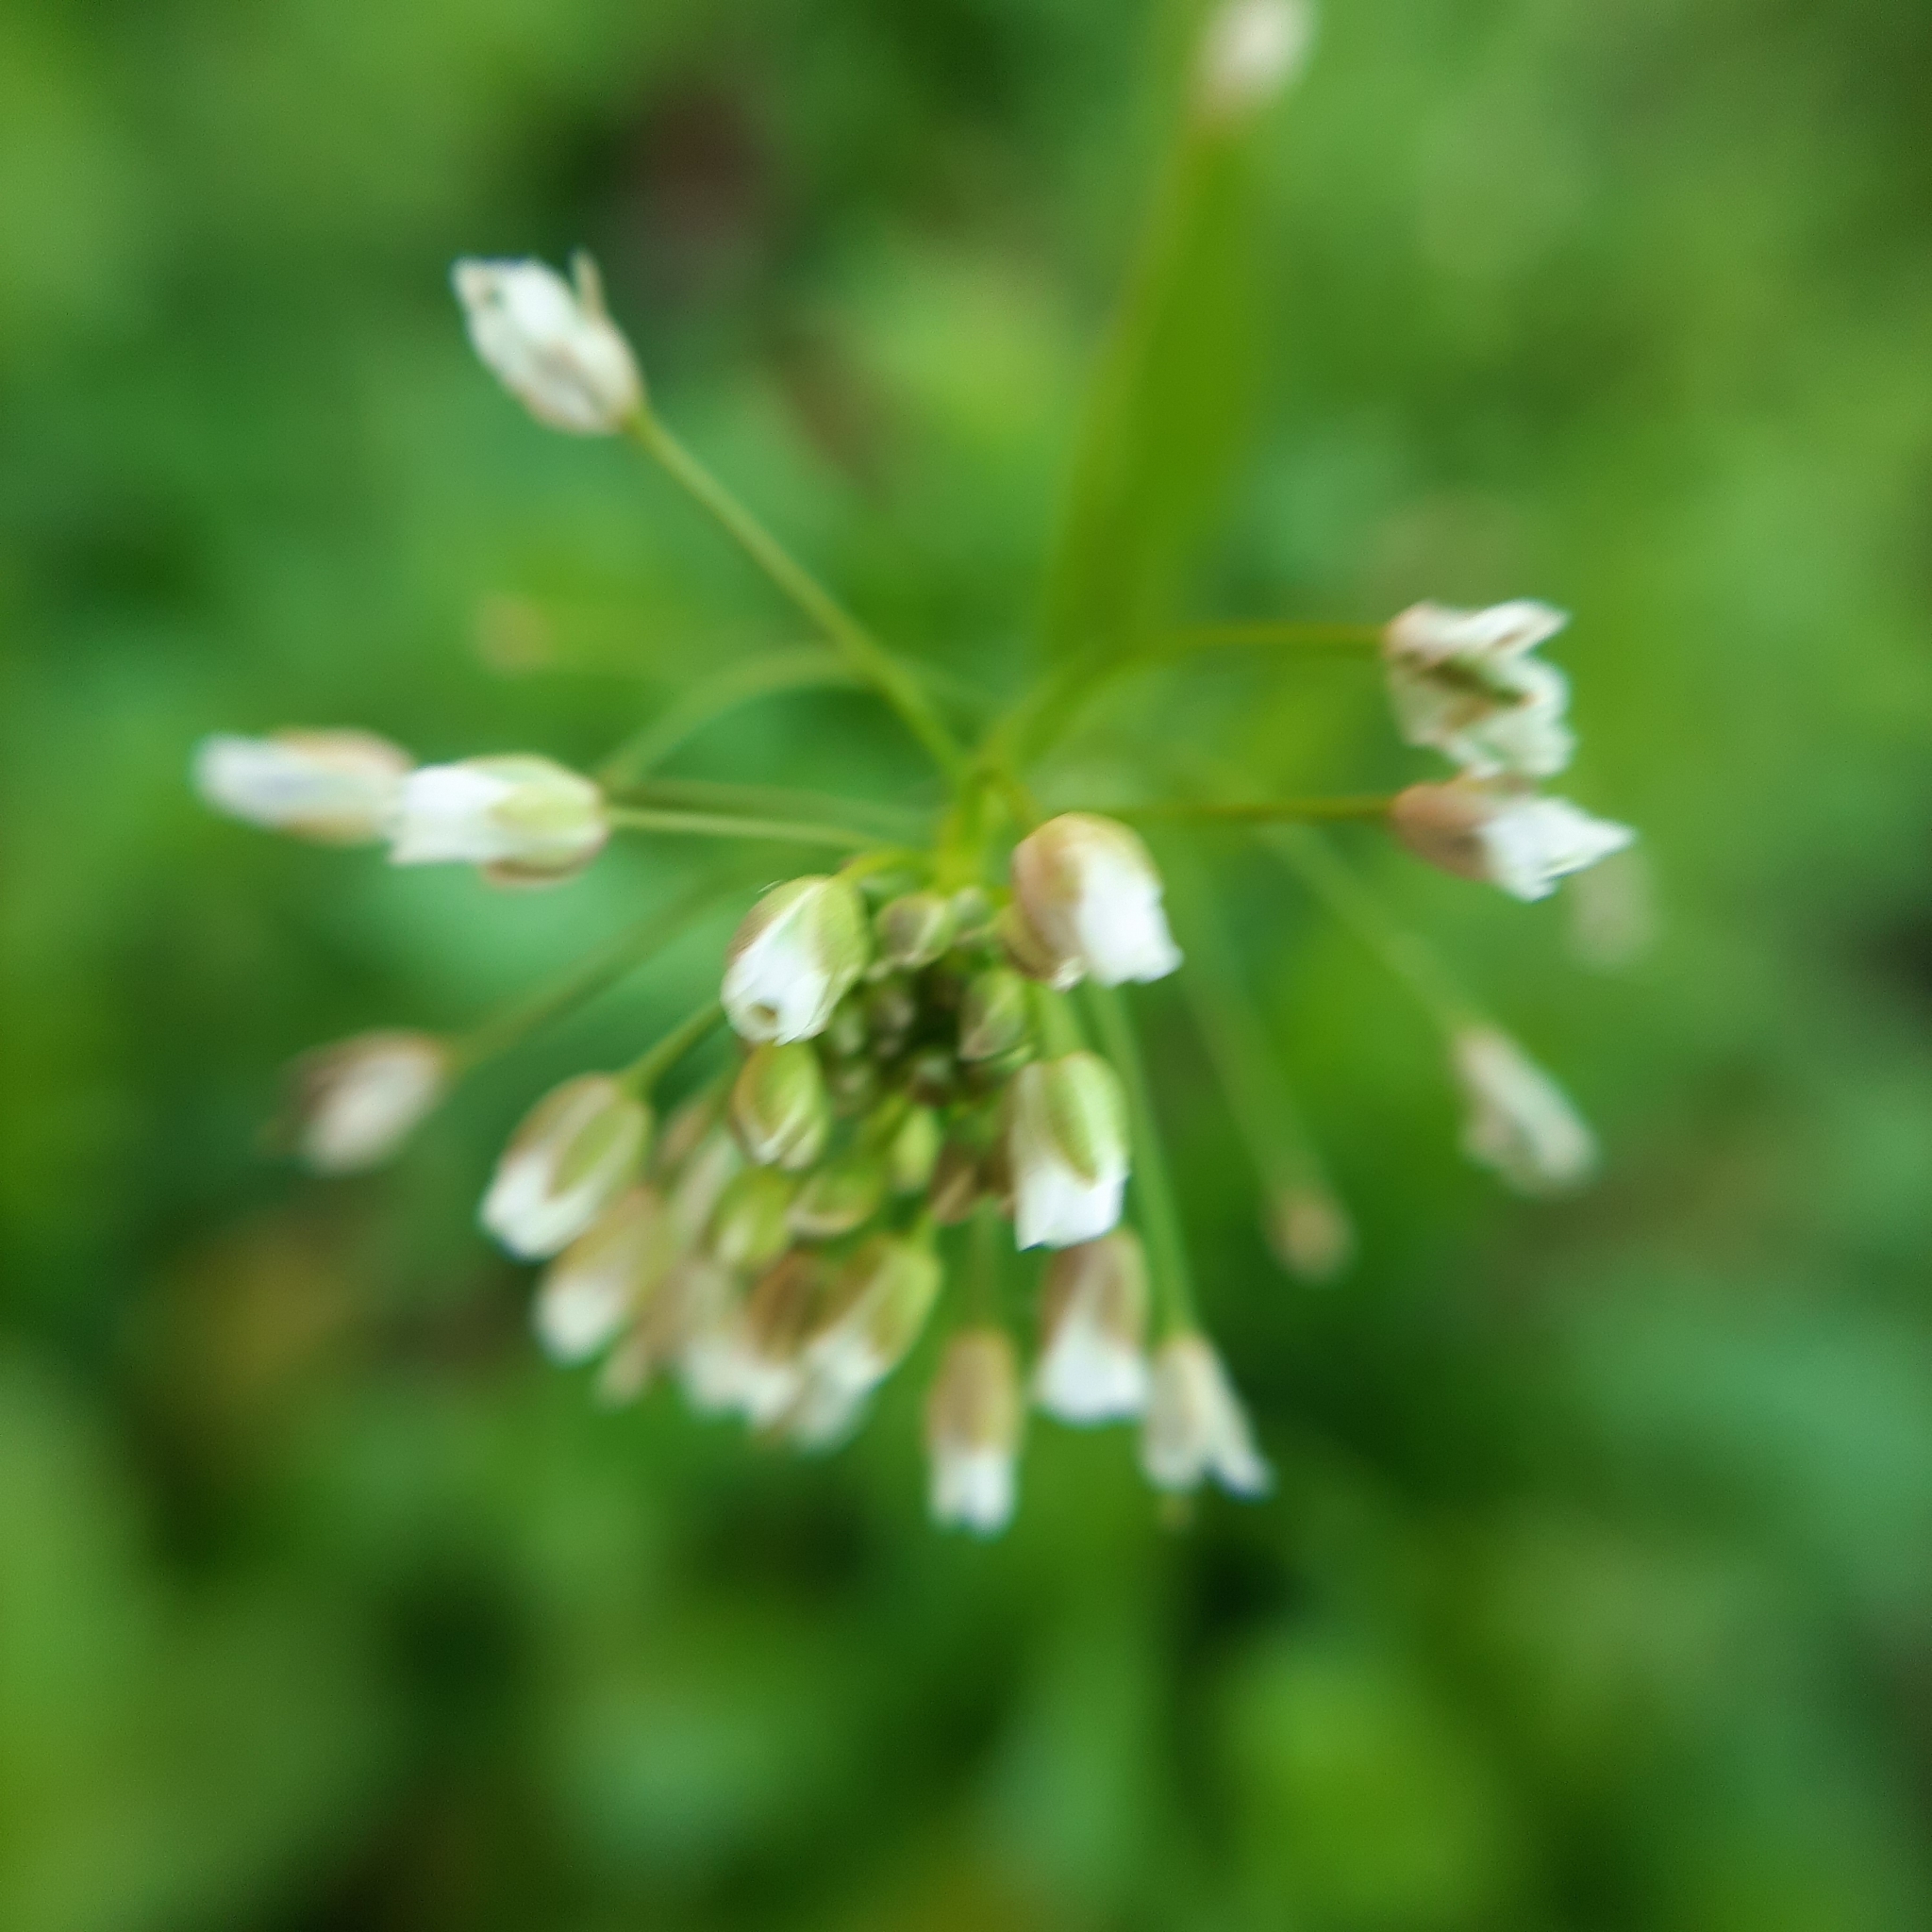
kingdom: Plantae
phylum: Tracheophyta
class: Magnoliopsida
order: Brassicales
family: Brassicaceae
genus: Capsella
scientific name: Capsella bursa-pastoris
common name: Shepherd's purse
